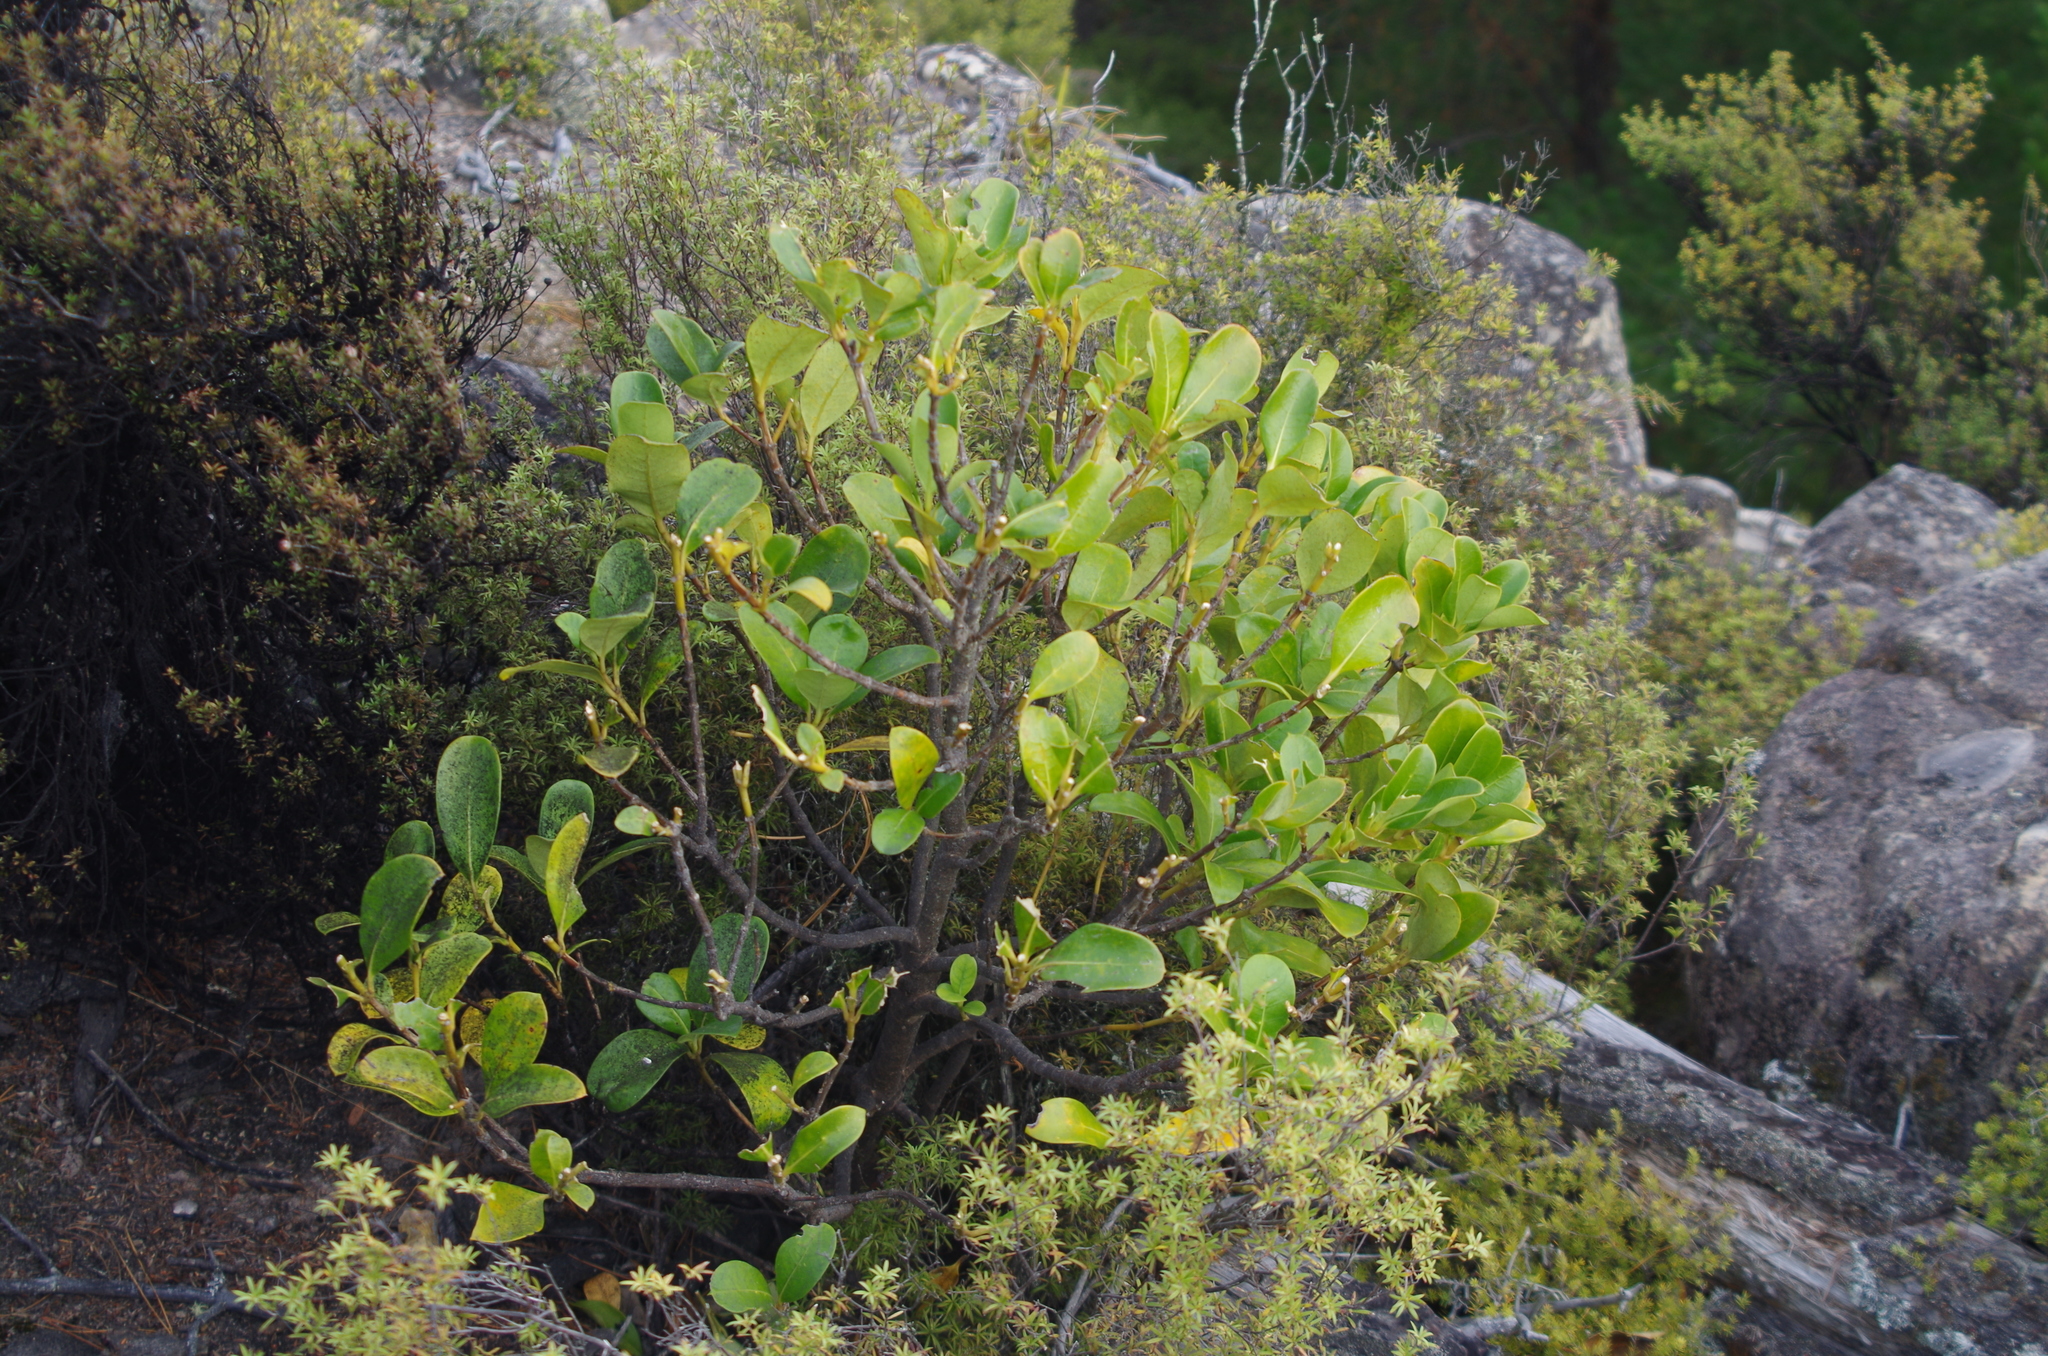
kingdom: Plantae
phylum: Tracheophyta
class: Magnoliopsida
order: Gentianales
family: Rubiaceae
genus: Coprosma
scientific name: Coprosma lucida
